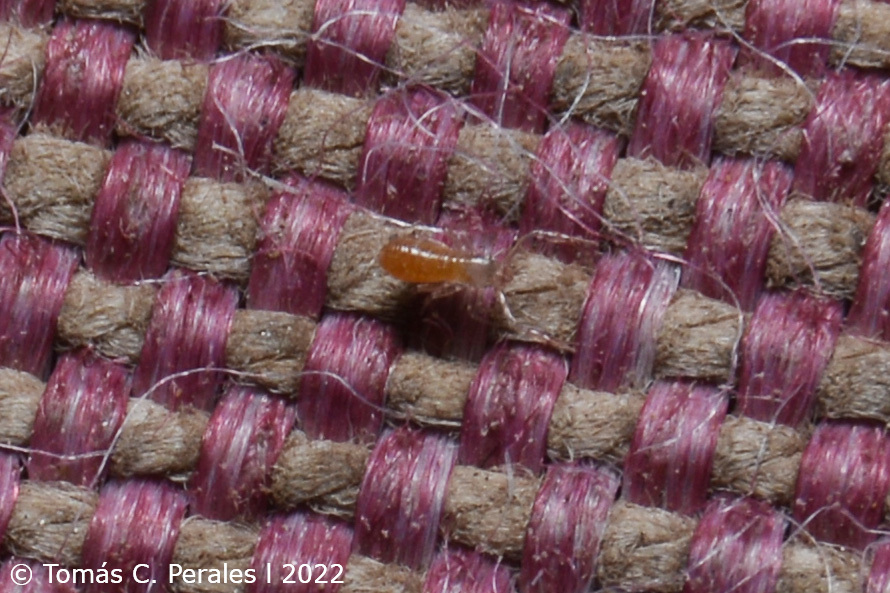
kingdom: Animalia
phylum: Arthropoda
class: Arachnida
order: Pseudoscorpiones
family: Chthoniidae
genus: Ephippiochthonius
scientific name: Ephippiochthonius tetrachelatus
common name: Pseudoscorpion
